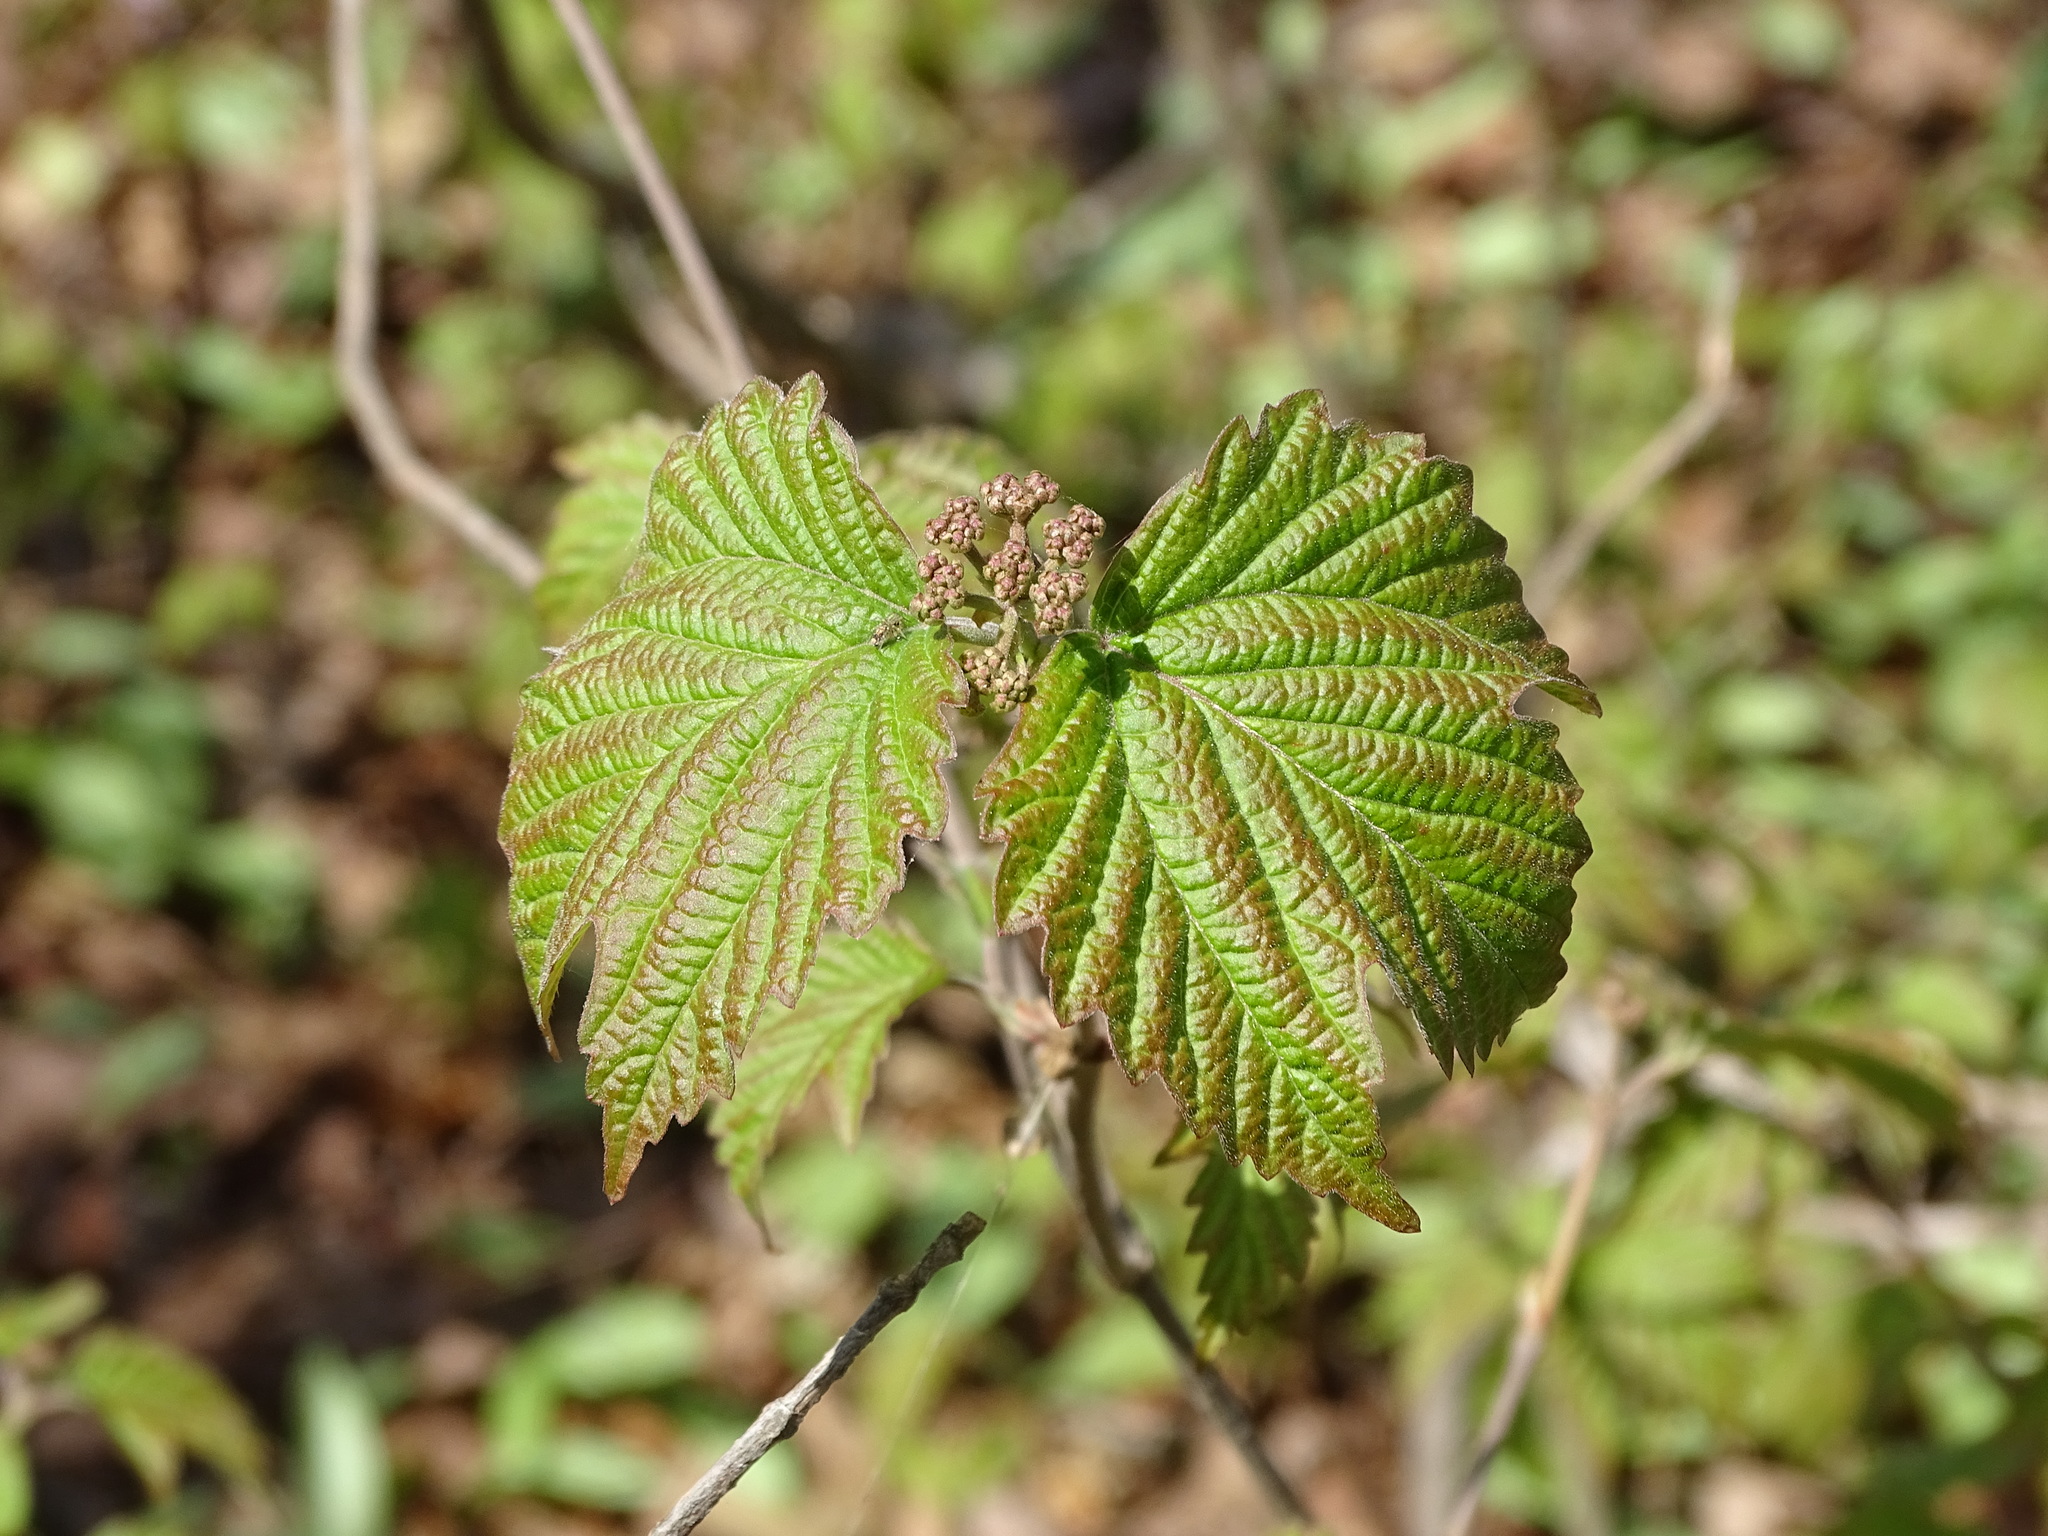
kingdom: Plantae
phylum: Tracheophyta
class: Magnoliopsida
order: Dipsacales
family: Viburnaceae
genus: Viburnum
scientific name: Viburnum acerifolium
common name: Dockmackie
